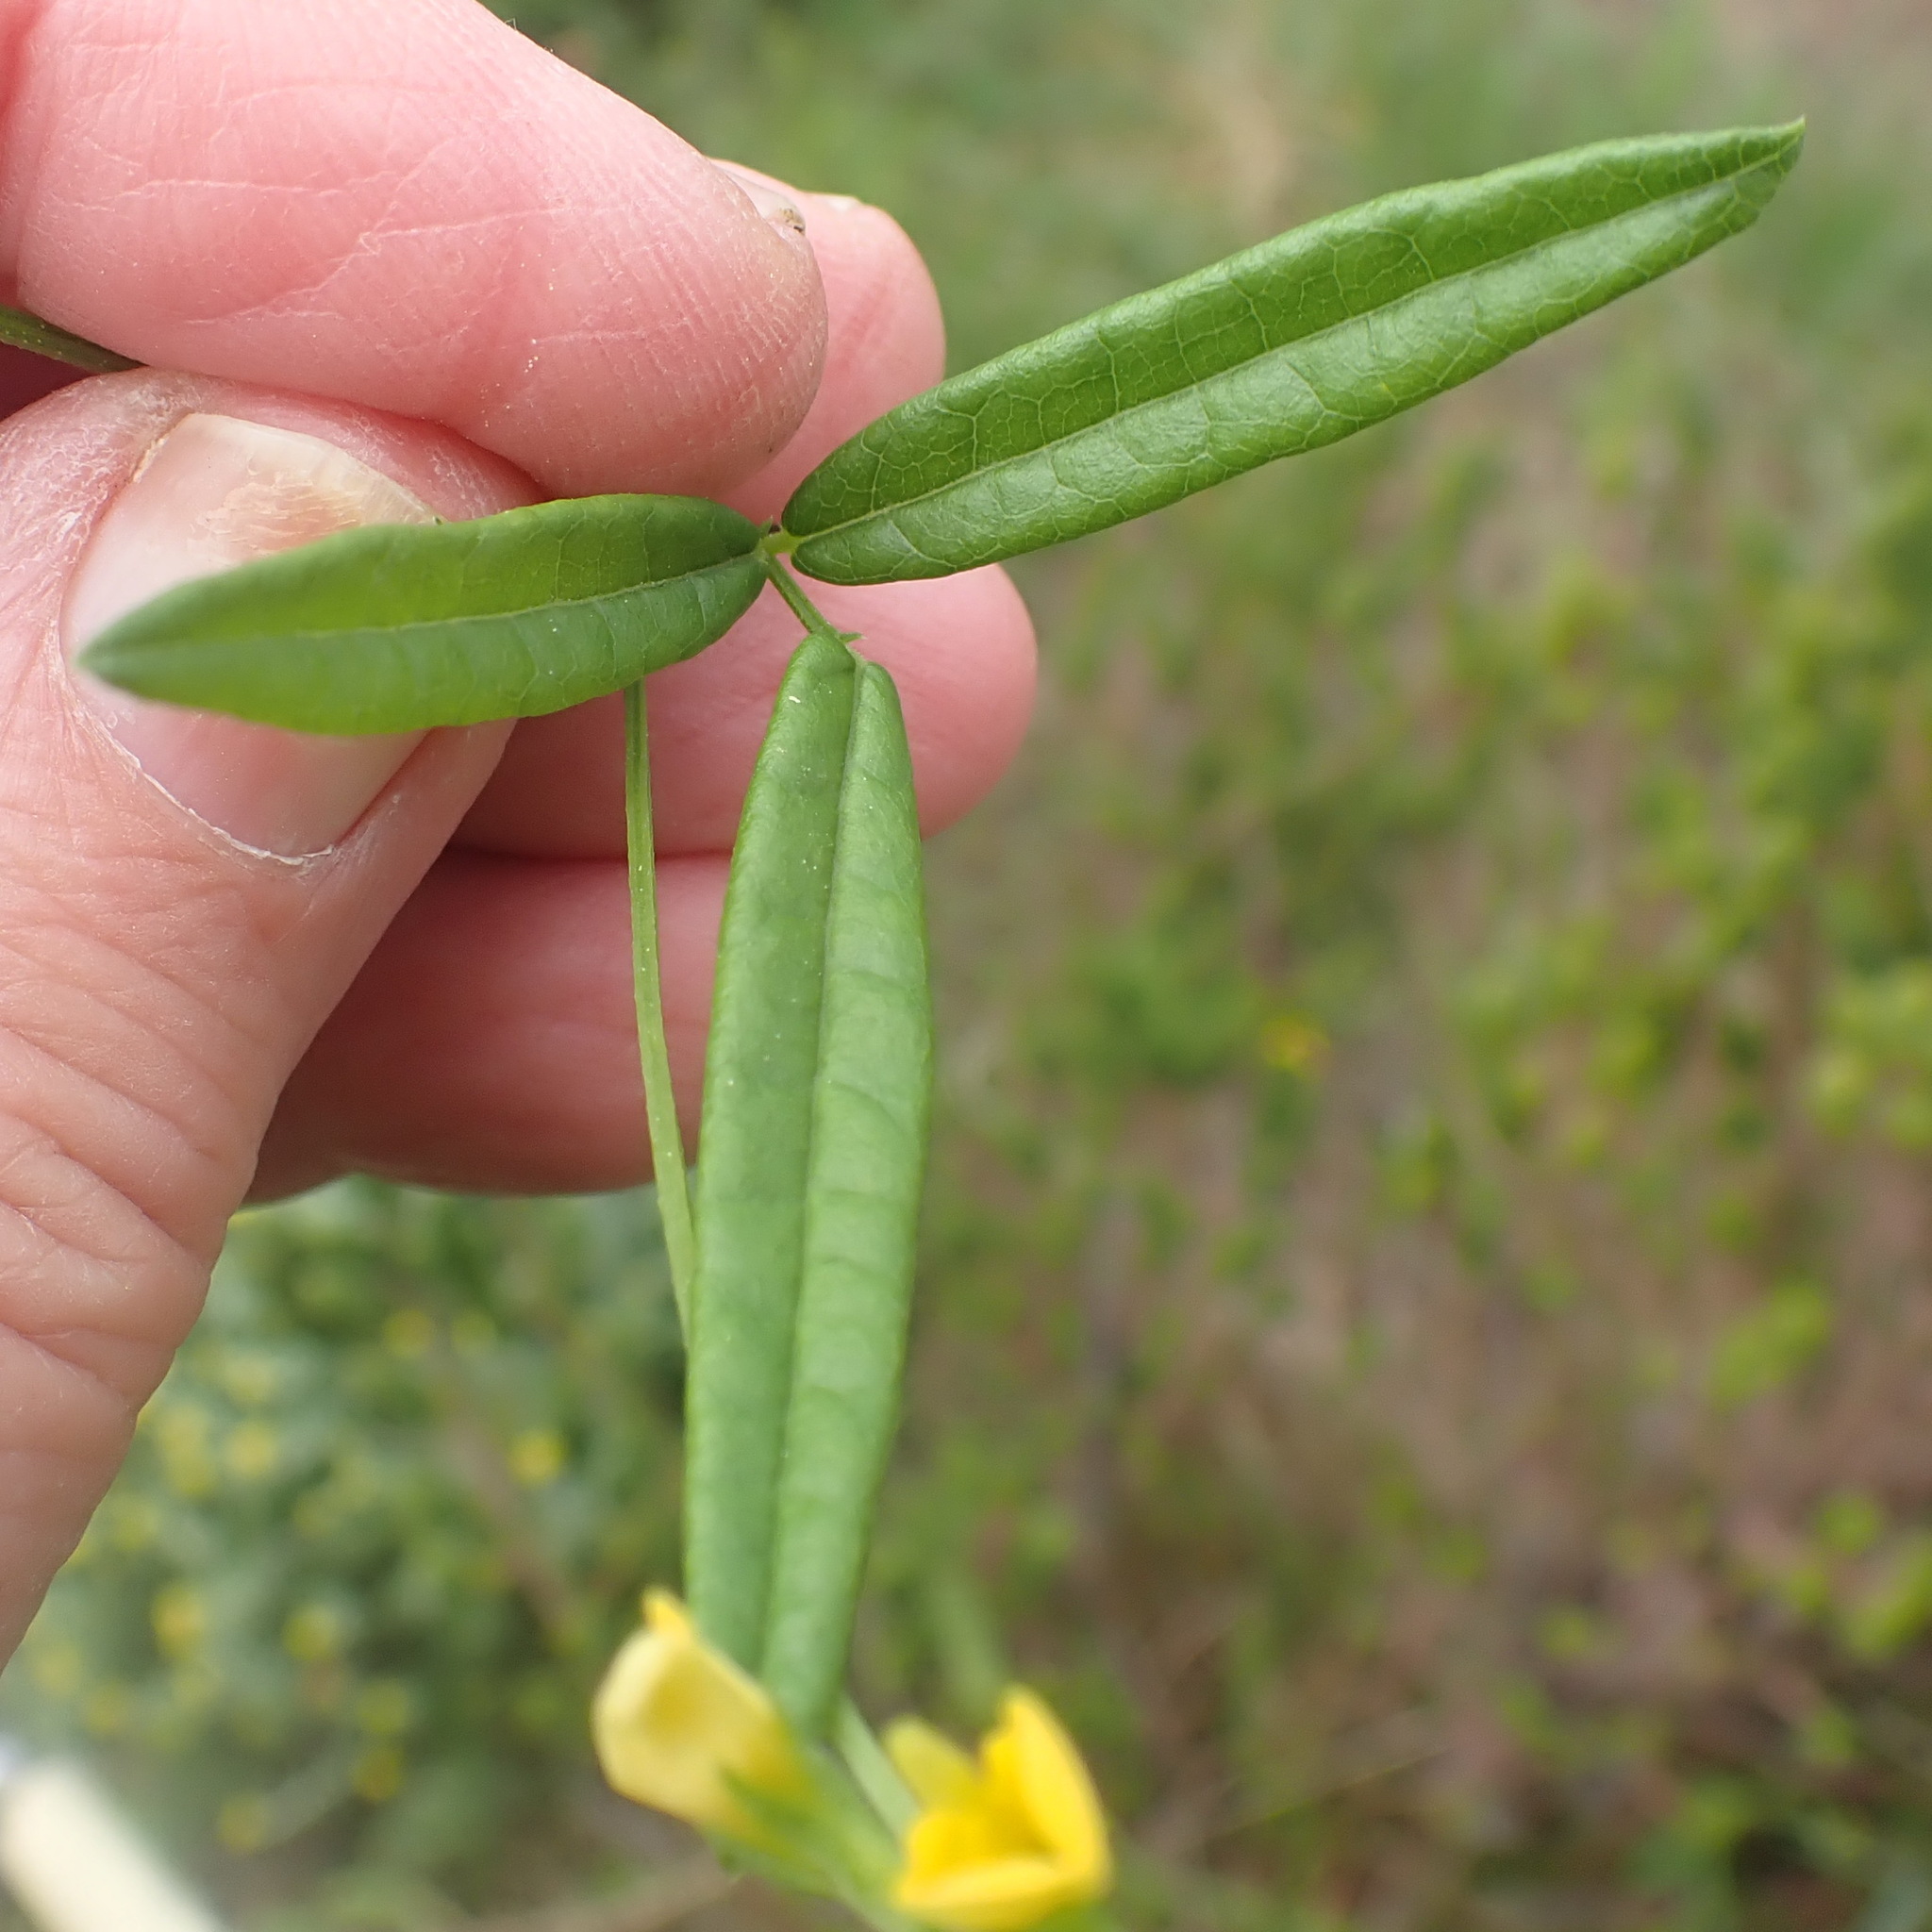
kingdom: Plantae
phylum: Tracheophyta
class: Magnoliopsida
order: Fabales
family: Fabaceae
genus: Rhynchosia
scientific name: Rhynchosia leucoscias
